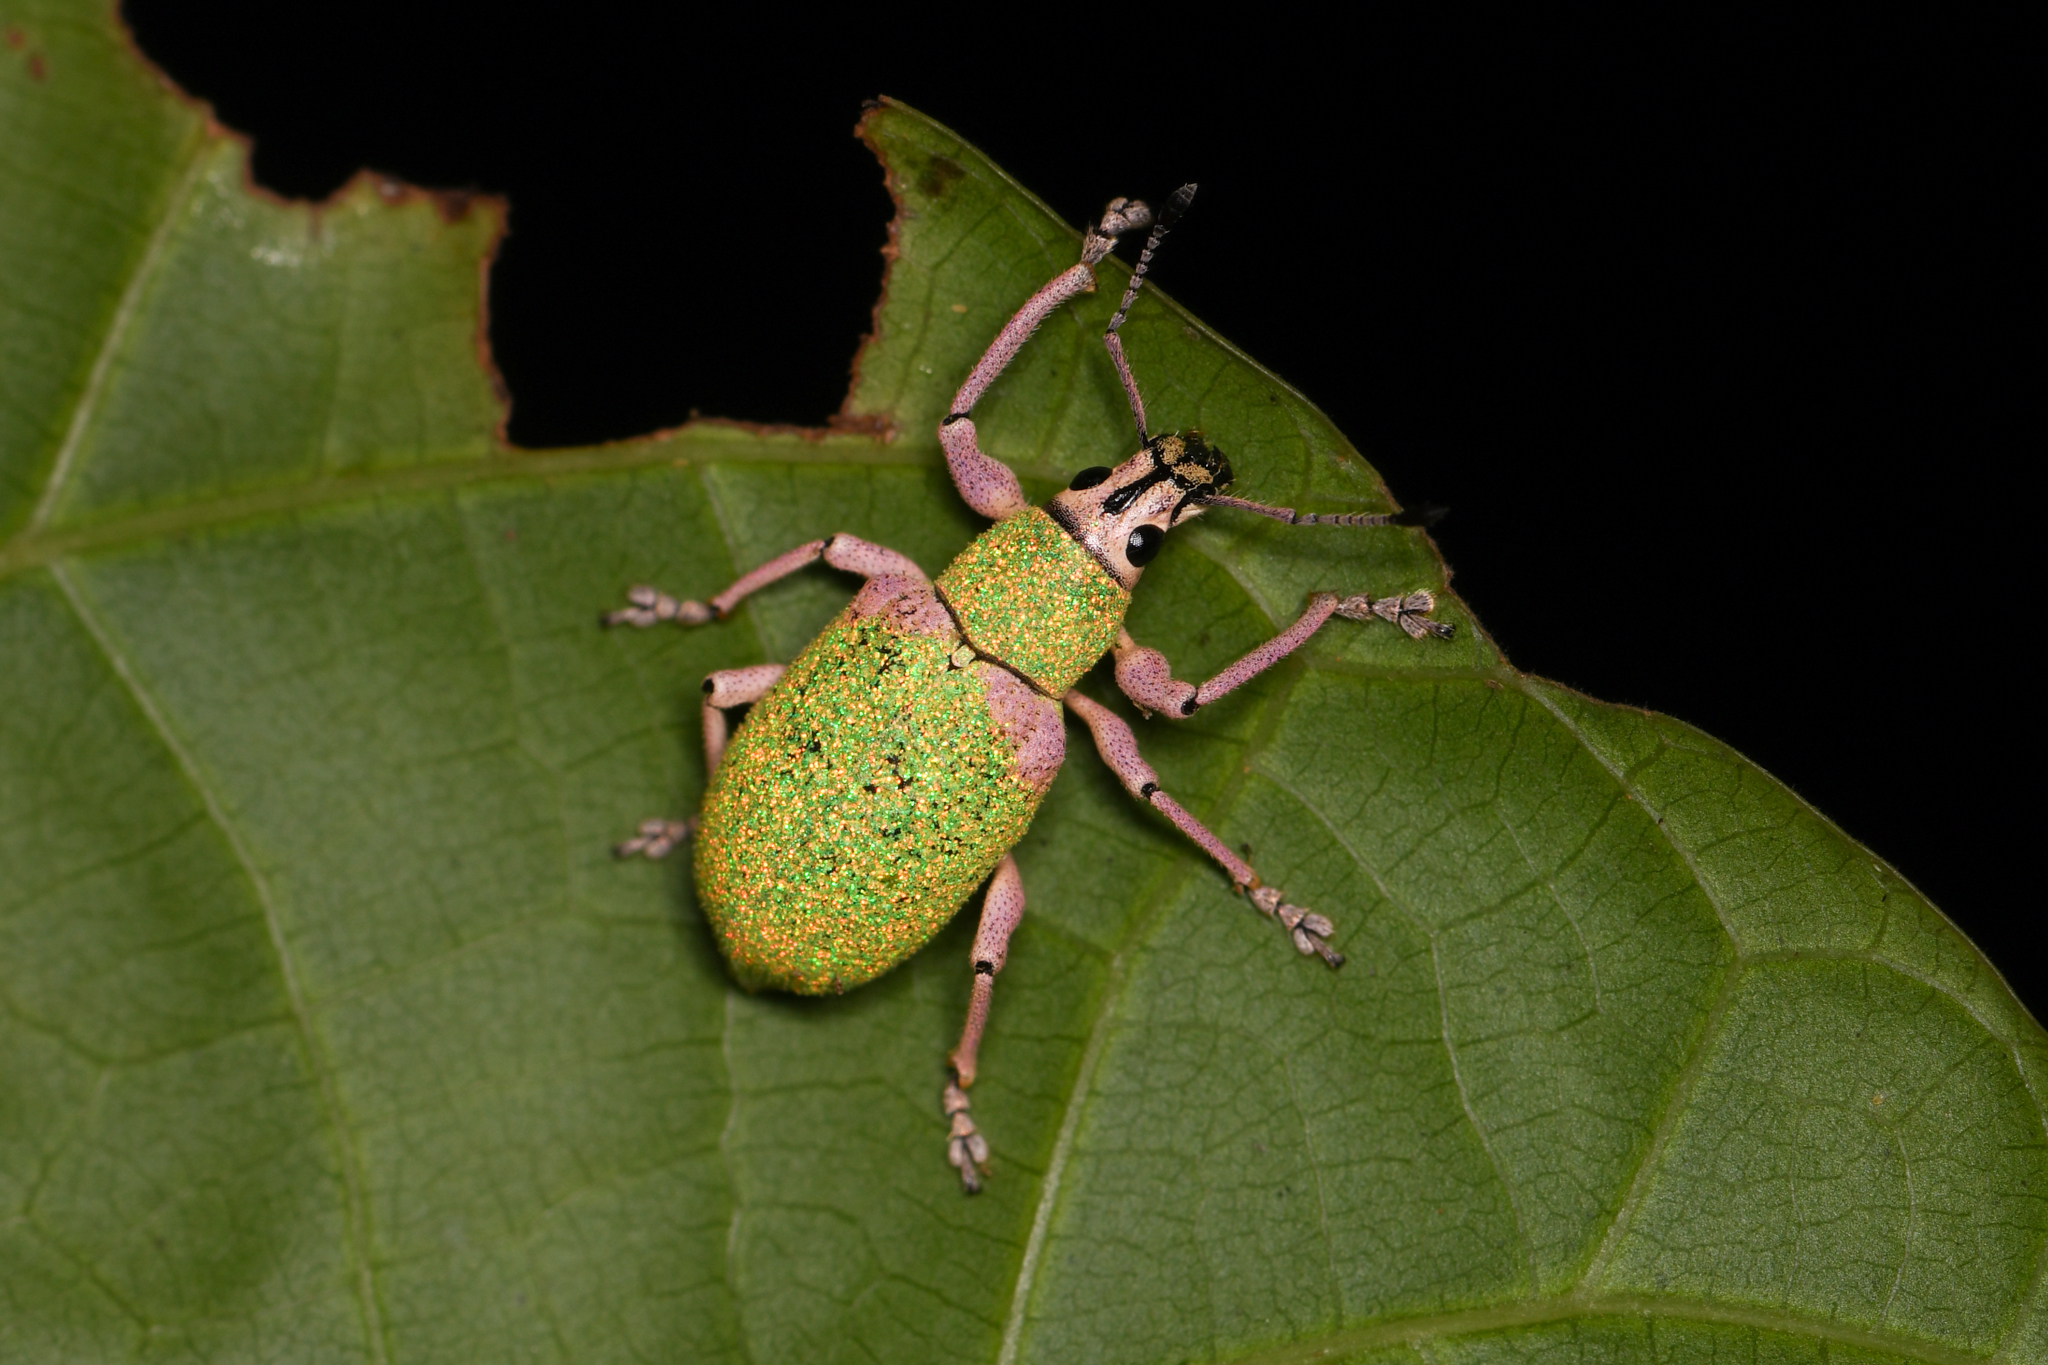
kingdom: Animalia
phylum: Arthropoda
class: Insecta
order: Coleoptera
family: Curculionidae
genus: Exophthalmus
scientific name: Exophthalmus carneipes
